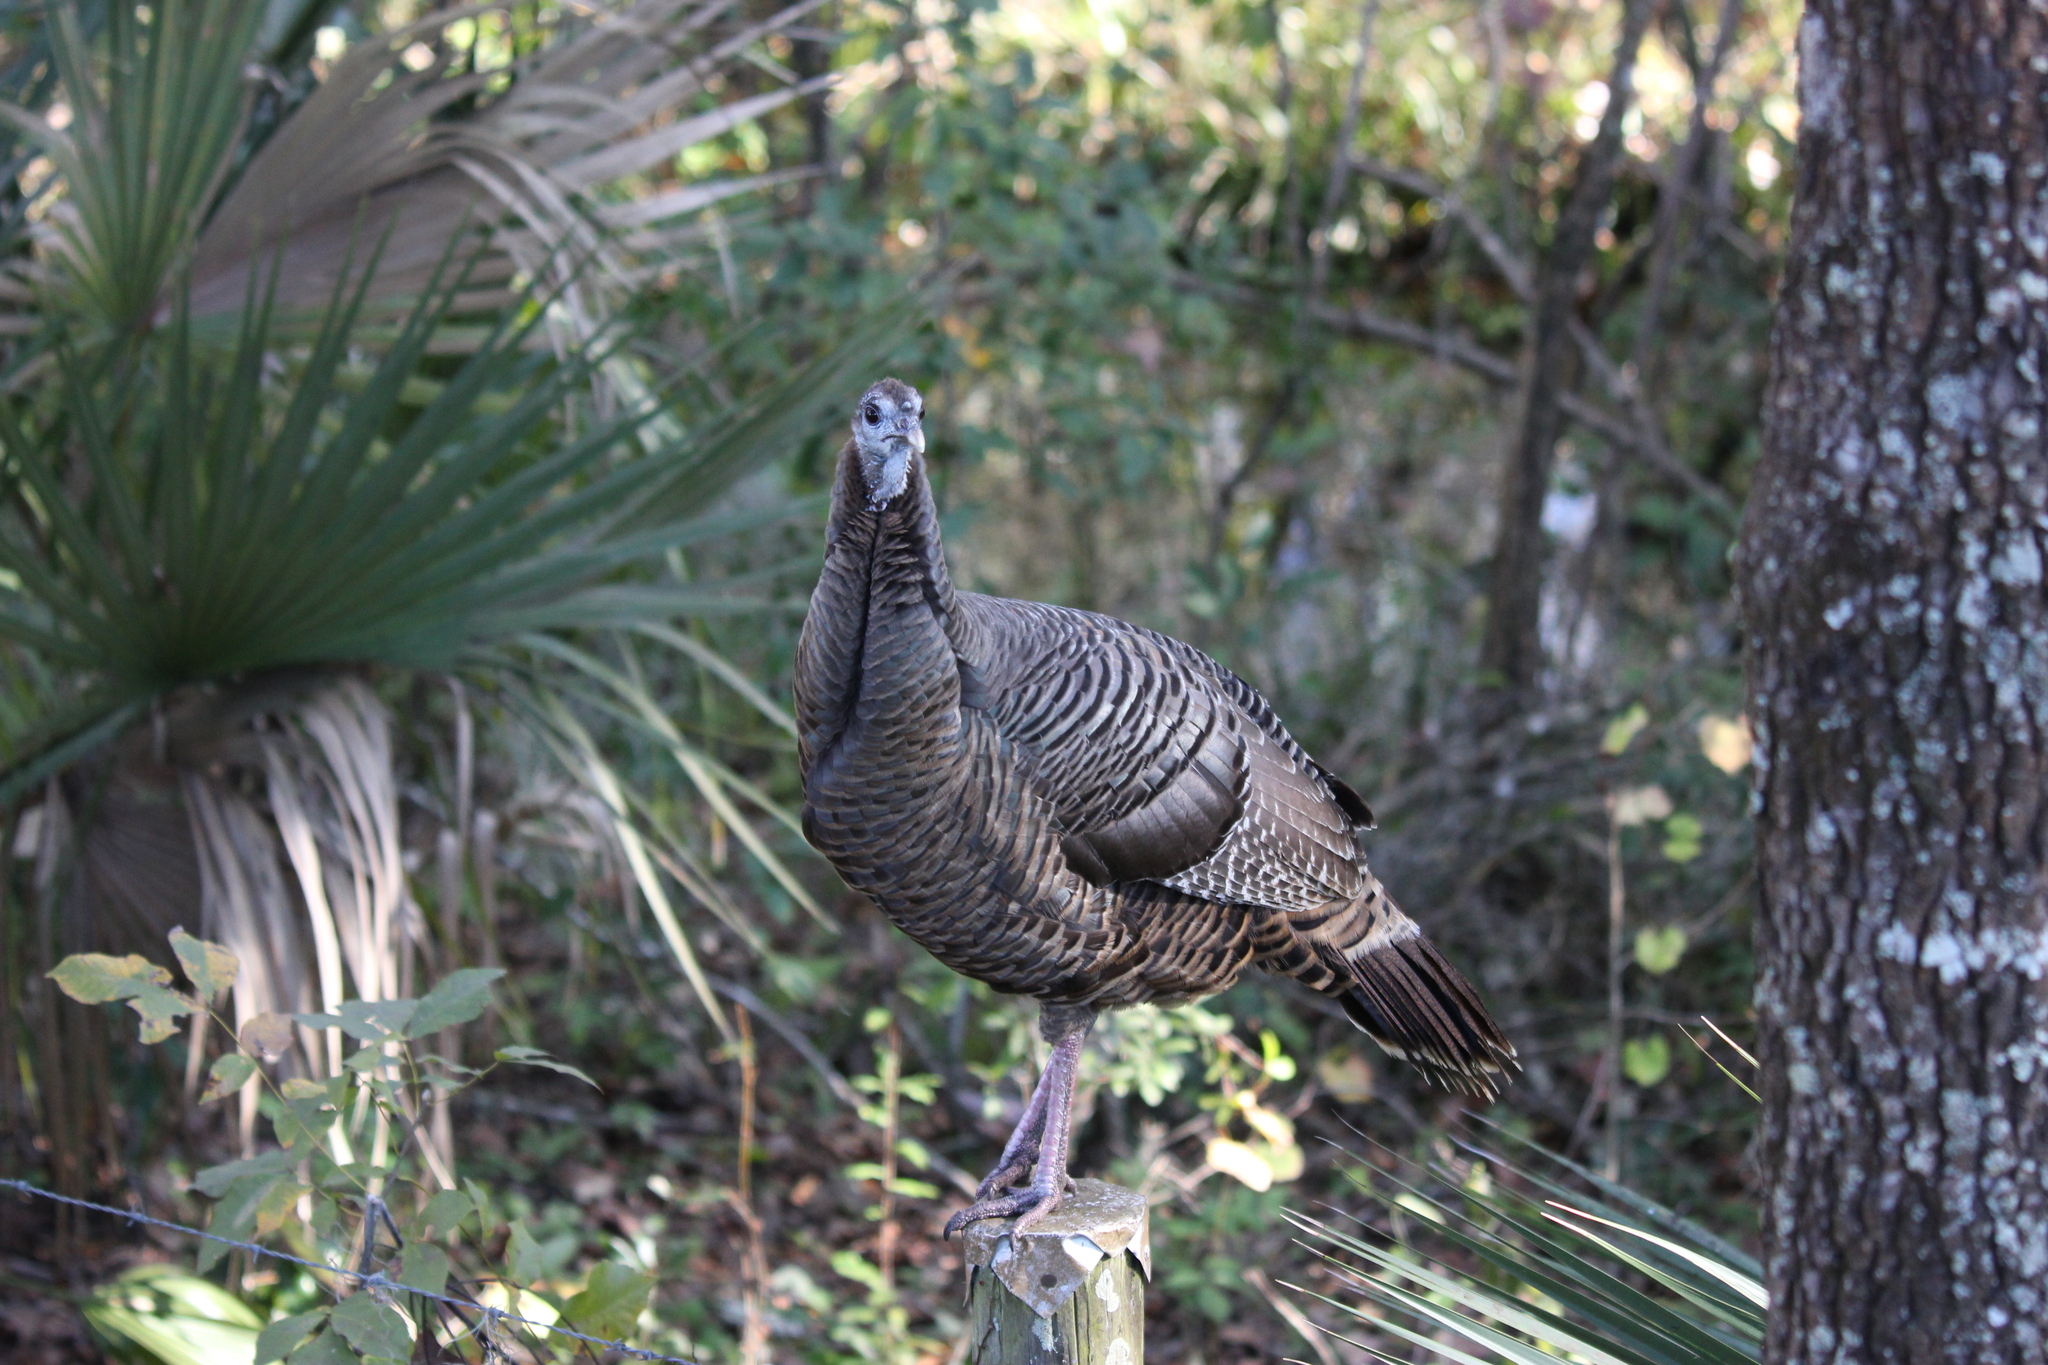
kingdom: Animalia
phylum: Chordata
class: Aves
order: Galliformes
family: Phasianidae
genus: Meleagris
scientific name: Meleagris gallopavo
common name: Wild turkey
